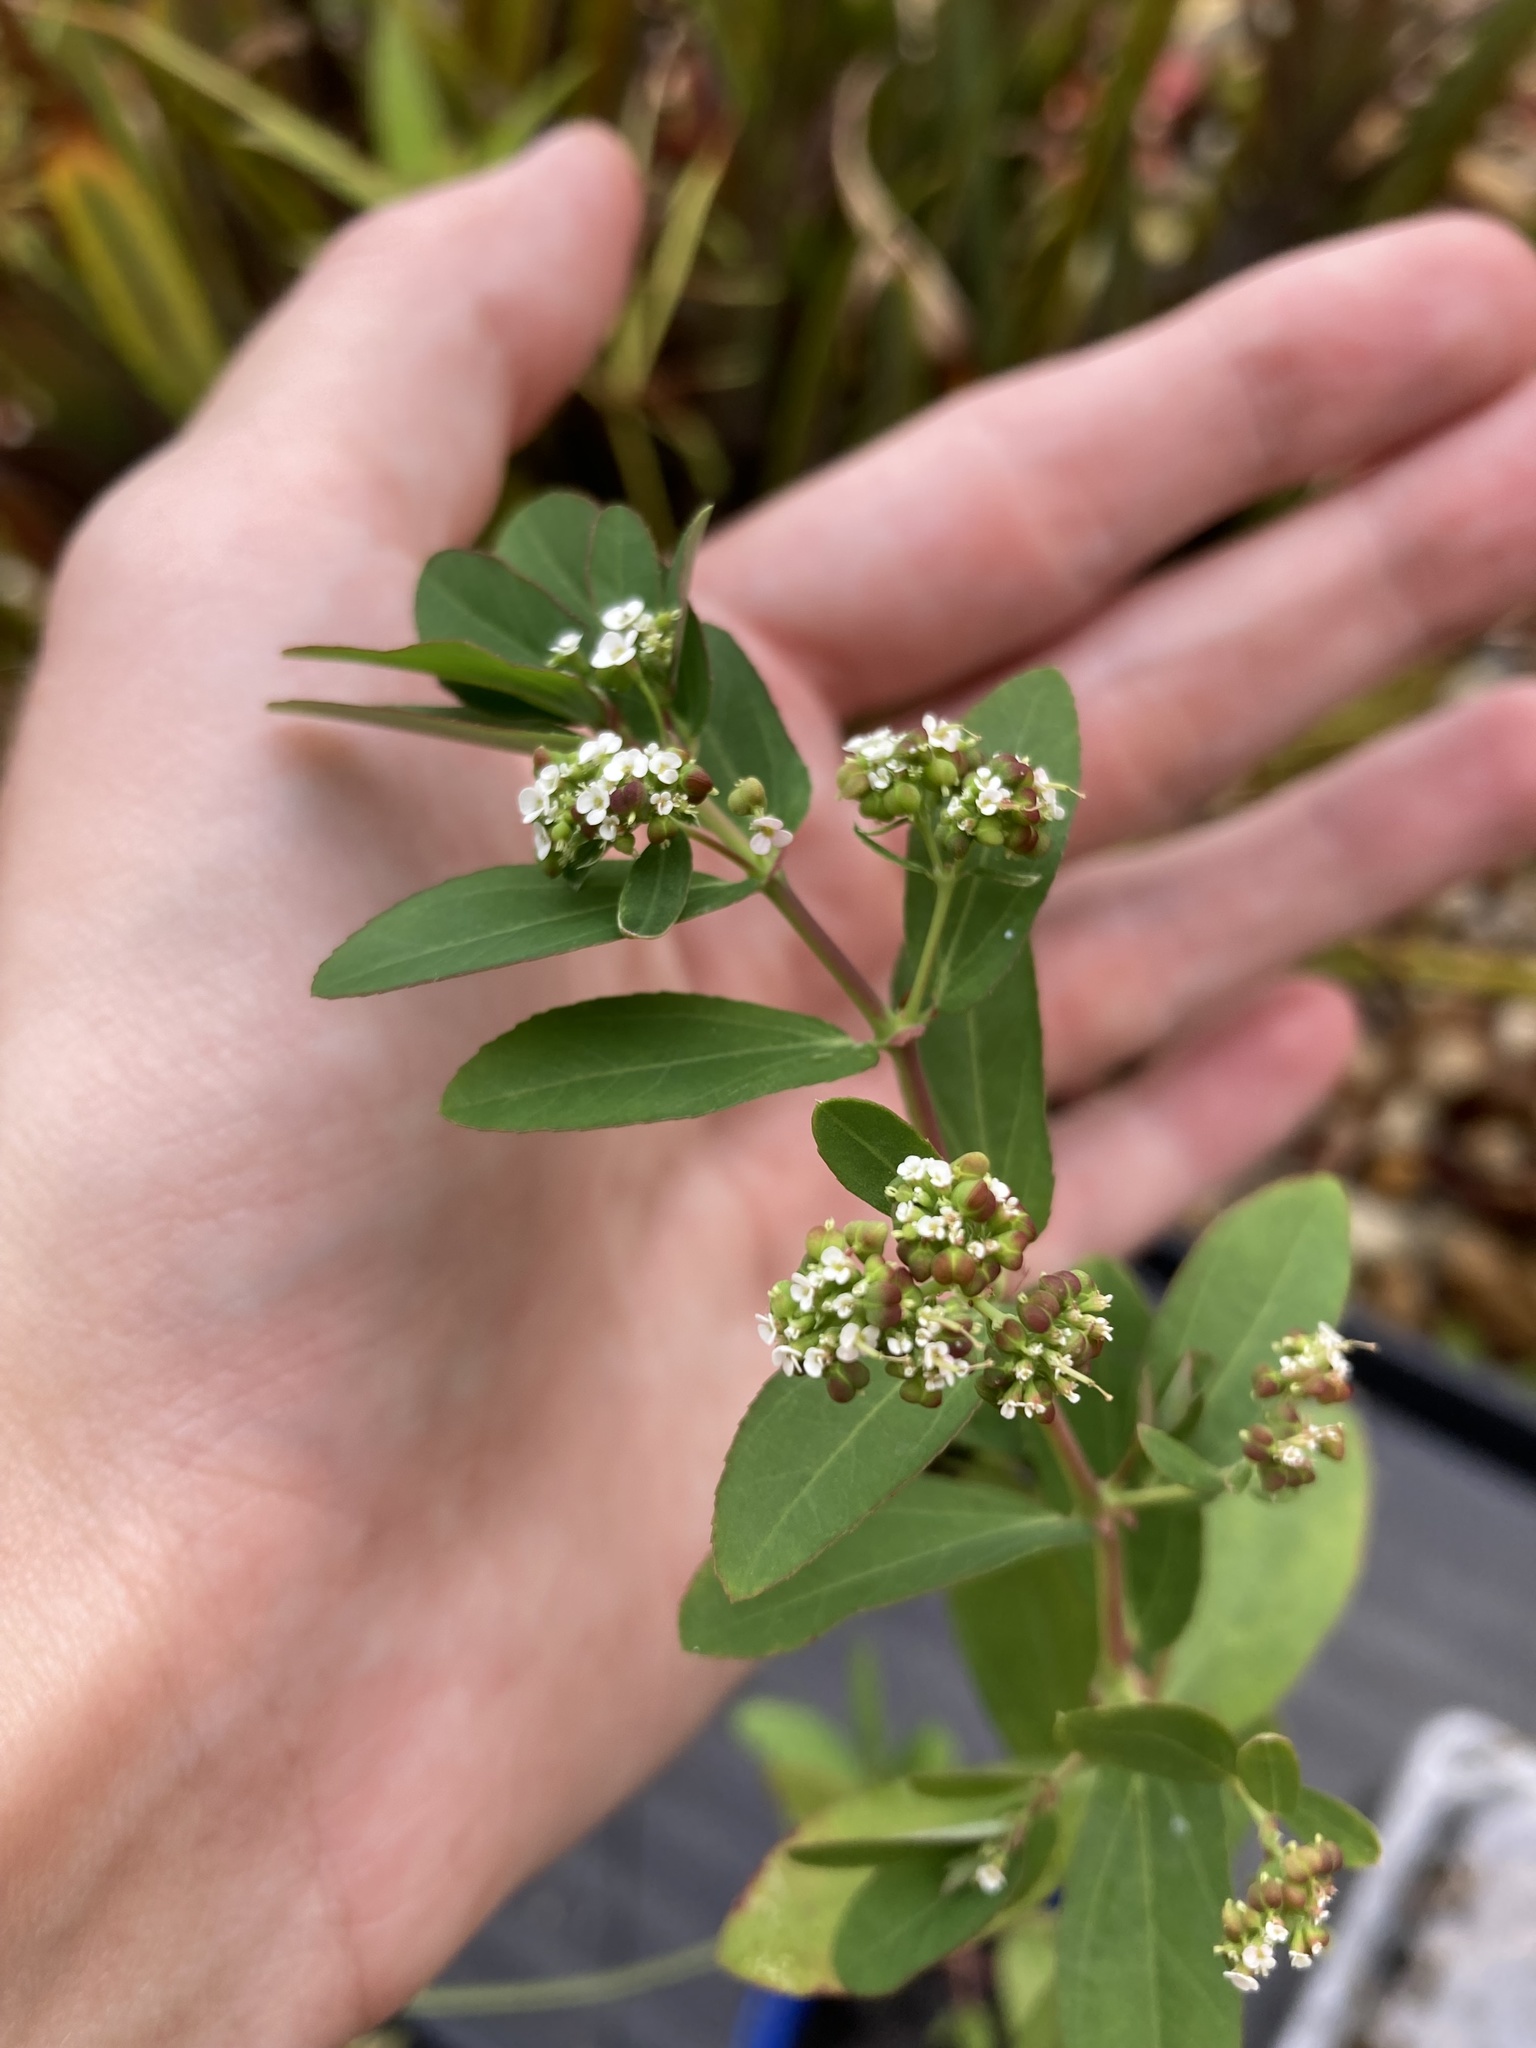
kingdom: Plantae
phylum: Tracheophyta
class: Magnoliopsida
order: Malpighiales
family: Euphorbiaceae
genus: Euphorbia
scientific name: Euphorbia hypericifolia
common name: Graceful sandmat
